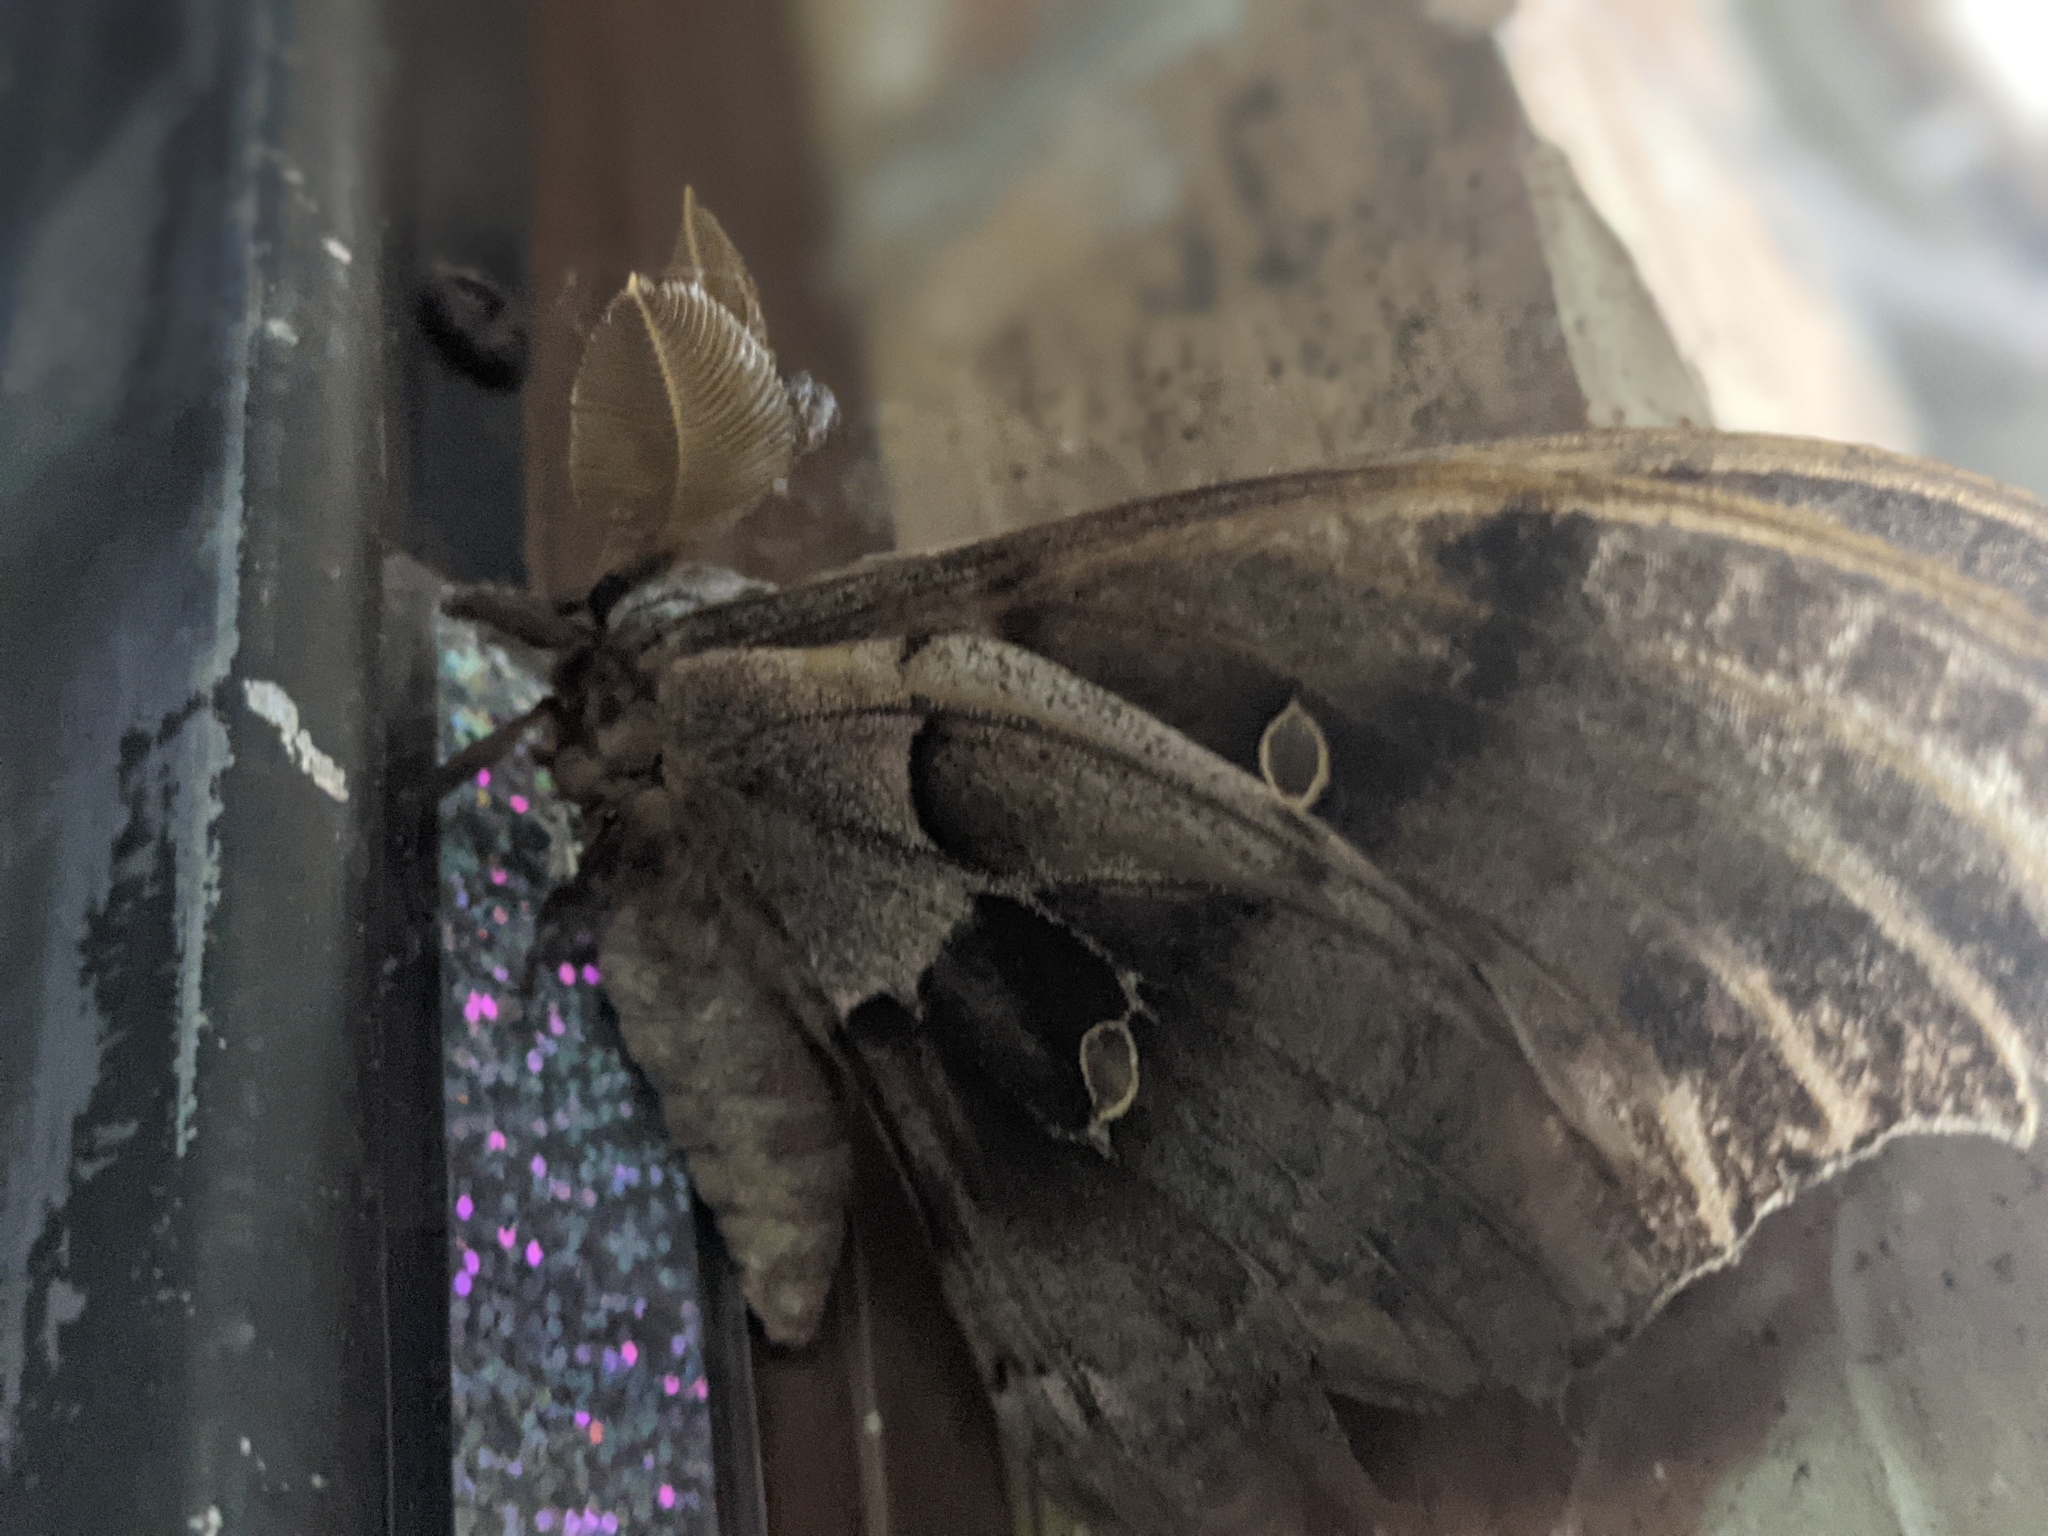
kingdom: Animalia
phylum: Arthropoda
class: Insecta
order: Lepidoptera
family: Saturniidae
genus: Antheraea
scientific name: Antheraea polyphemus
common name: Polyphemus moth
